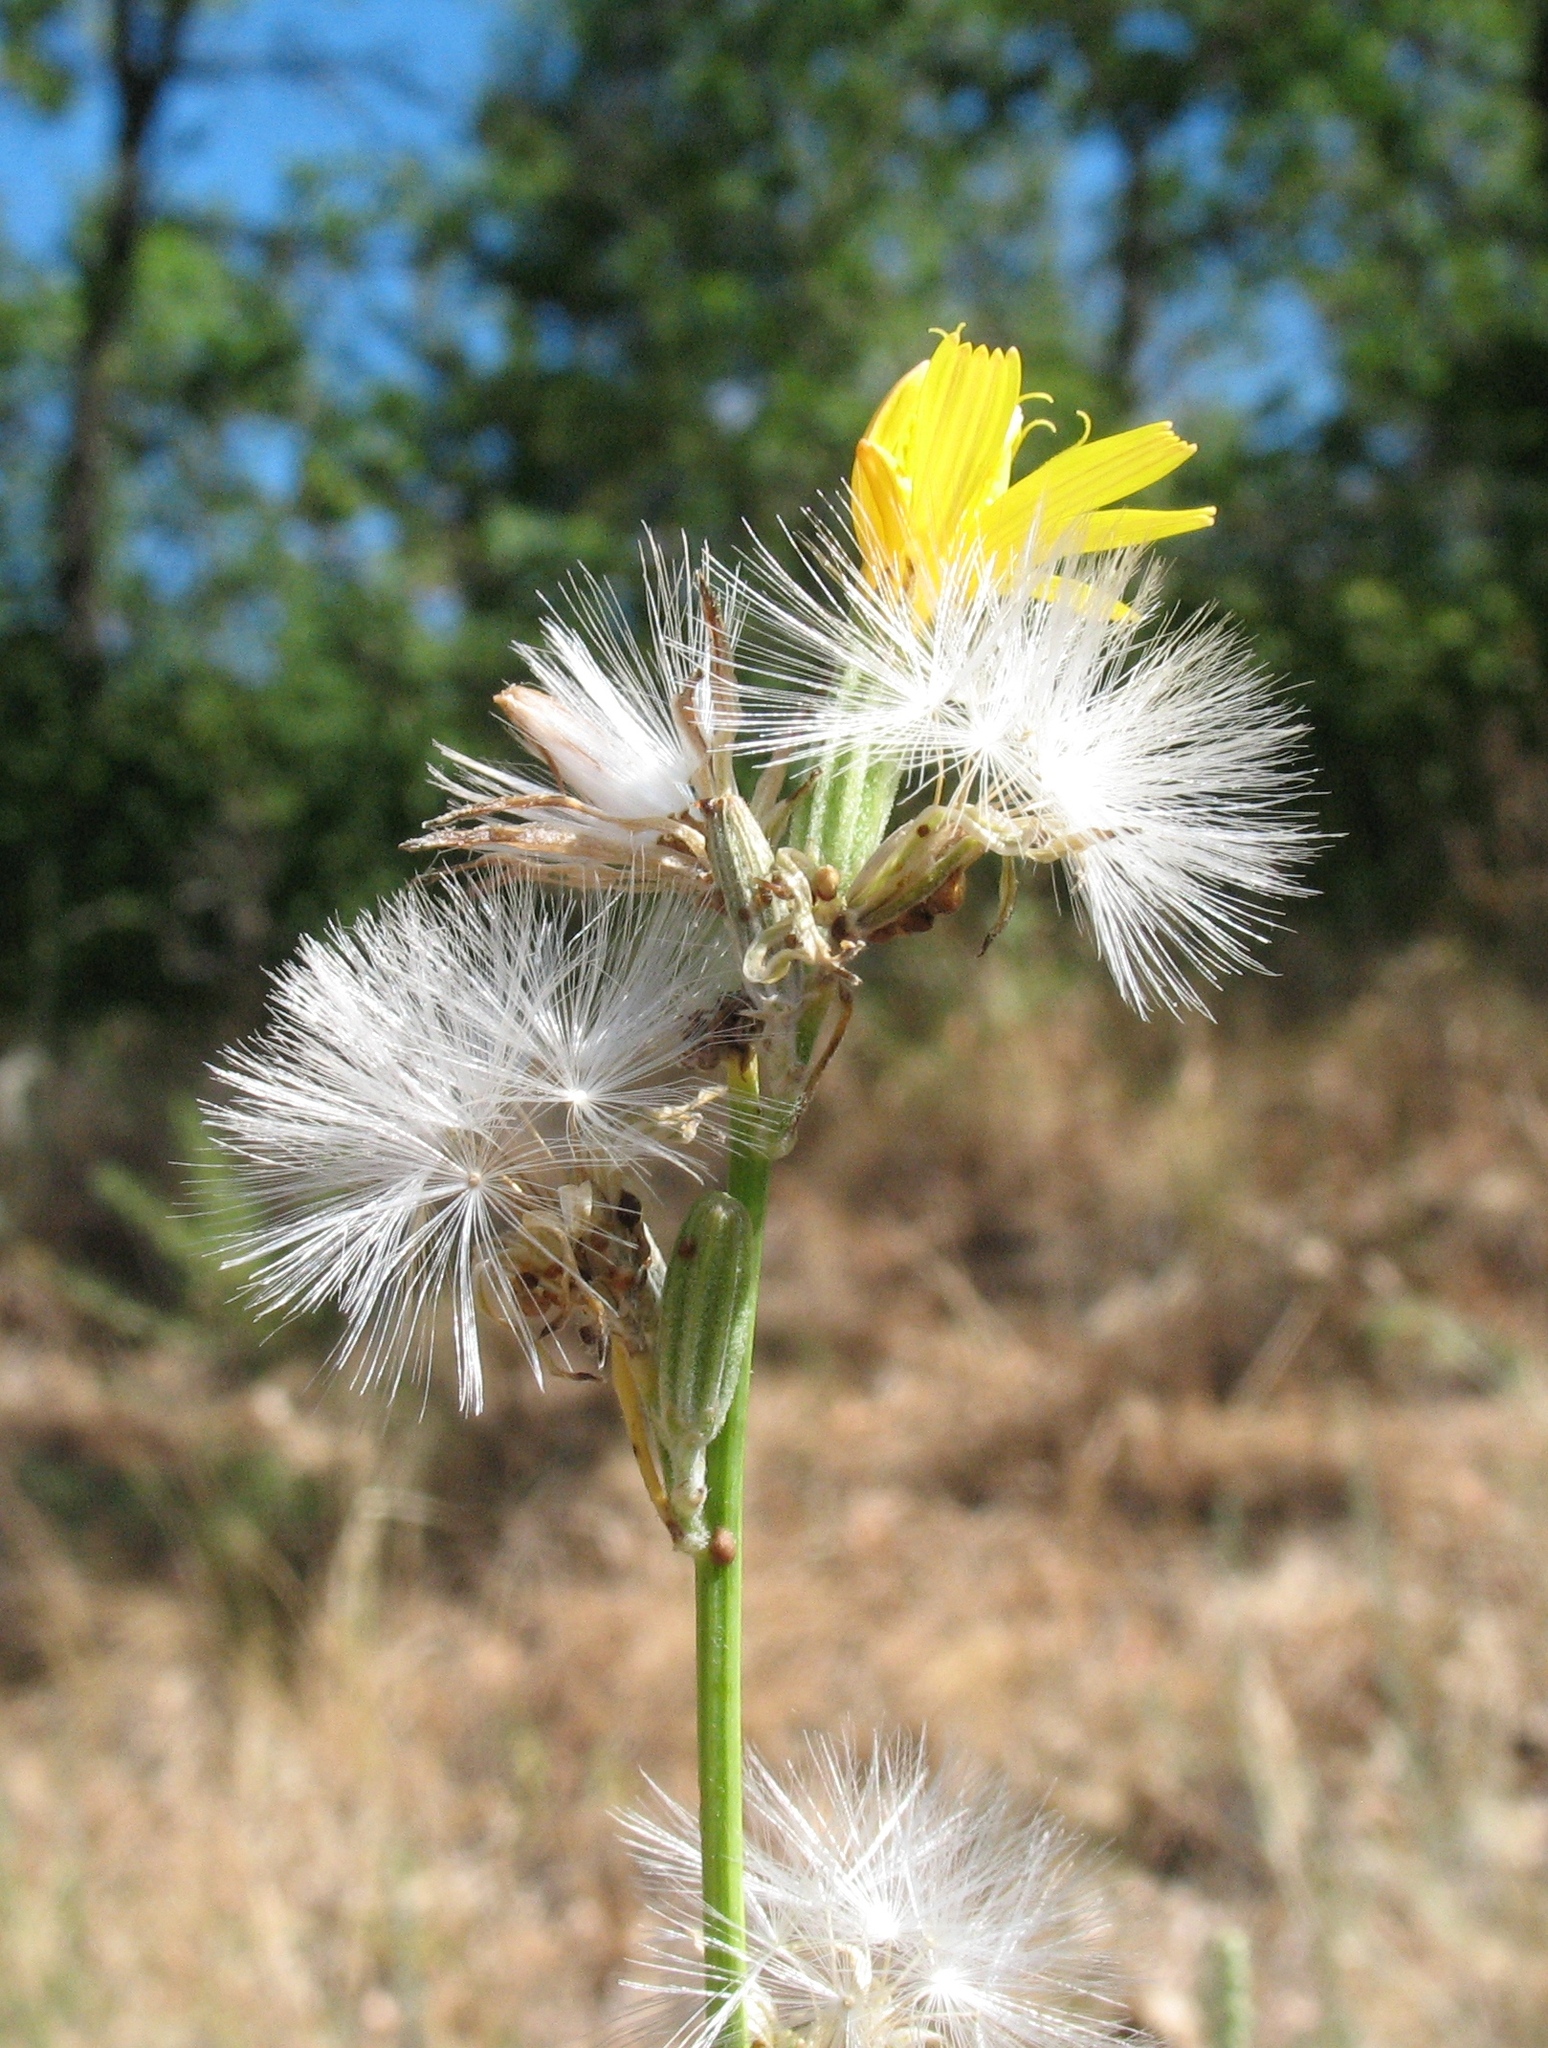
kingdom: Plantae
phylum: Tracheophyta
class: Magnoliopsida
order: Asterales
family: Asteraceae
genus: Chondrilla
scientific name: Chondrilla juncea
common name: Skeleton weed
